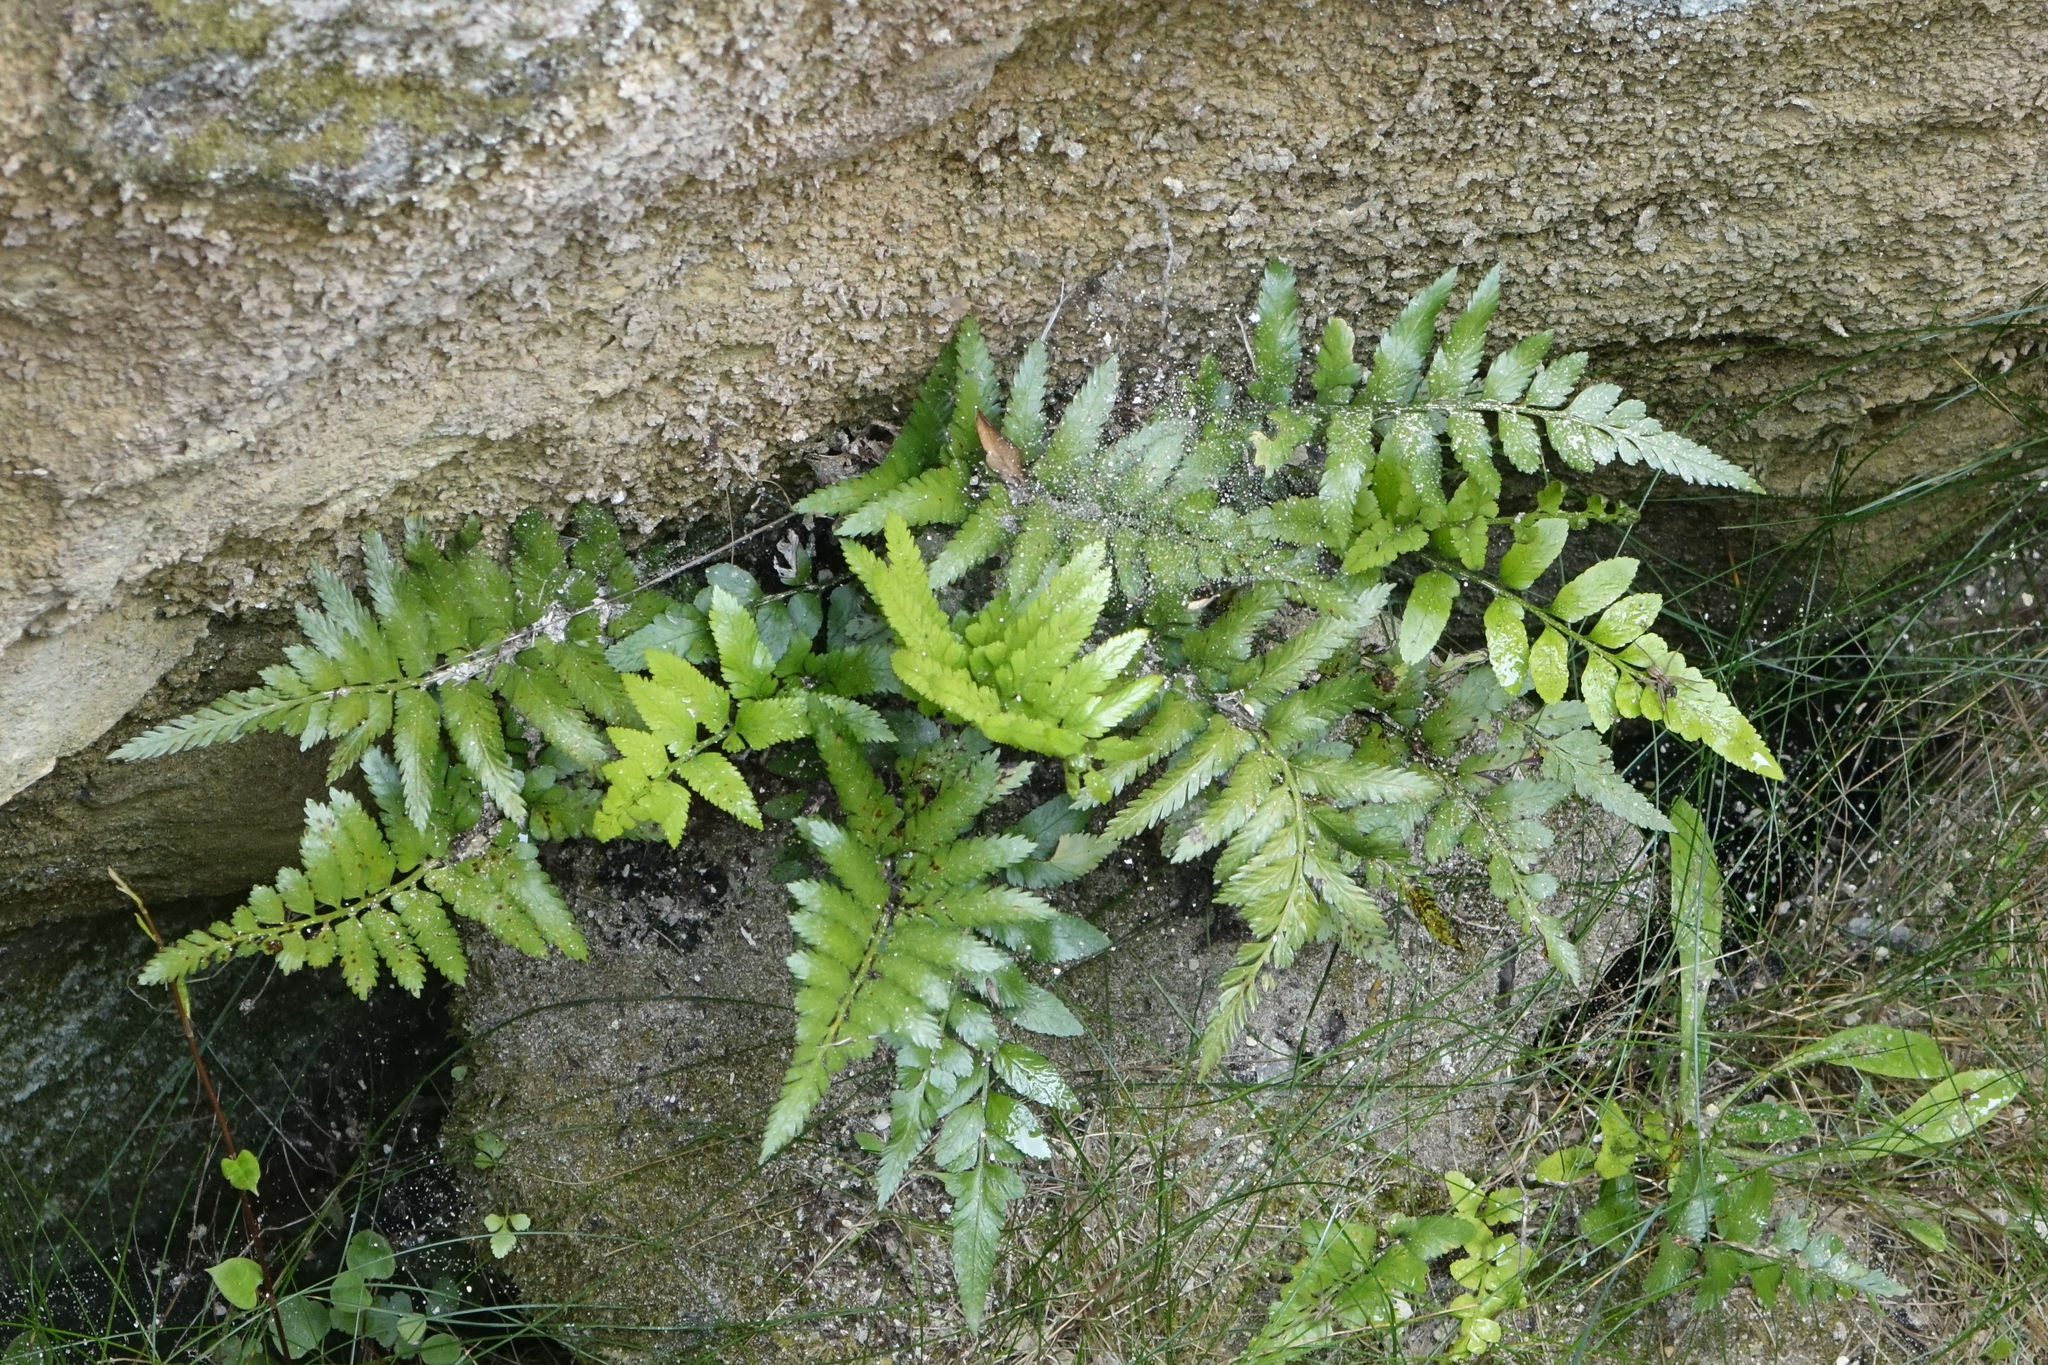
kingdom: Plantae
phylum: Tracheophyta
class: Polypodiopsida
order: Polypodiales
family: Aspleniaceae
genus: Asplenium
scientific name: Asplenium lyallii
